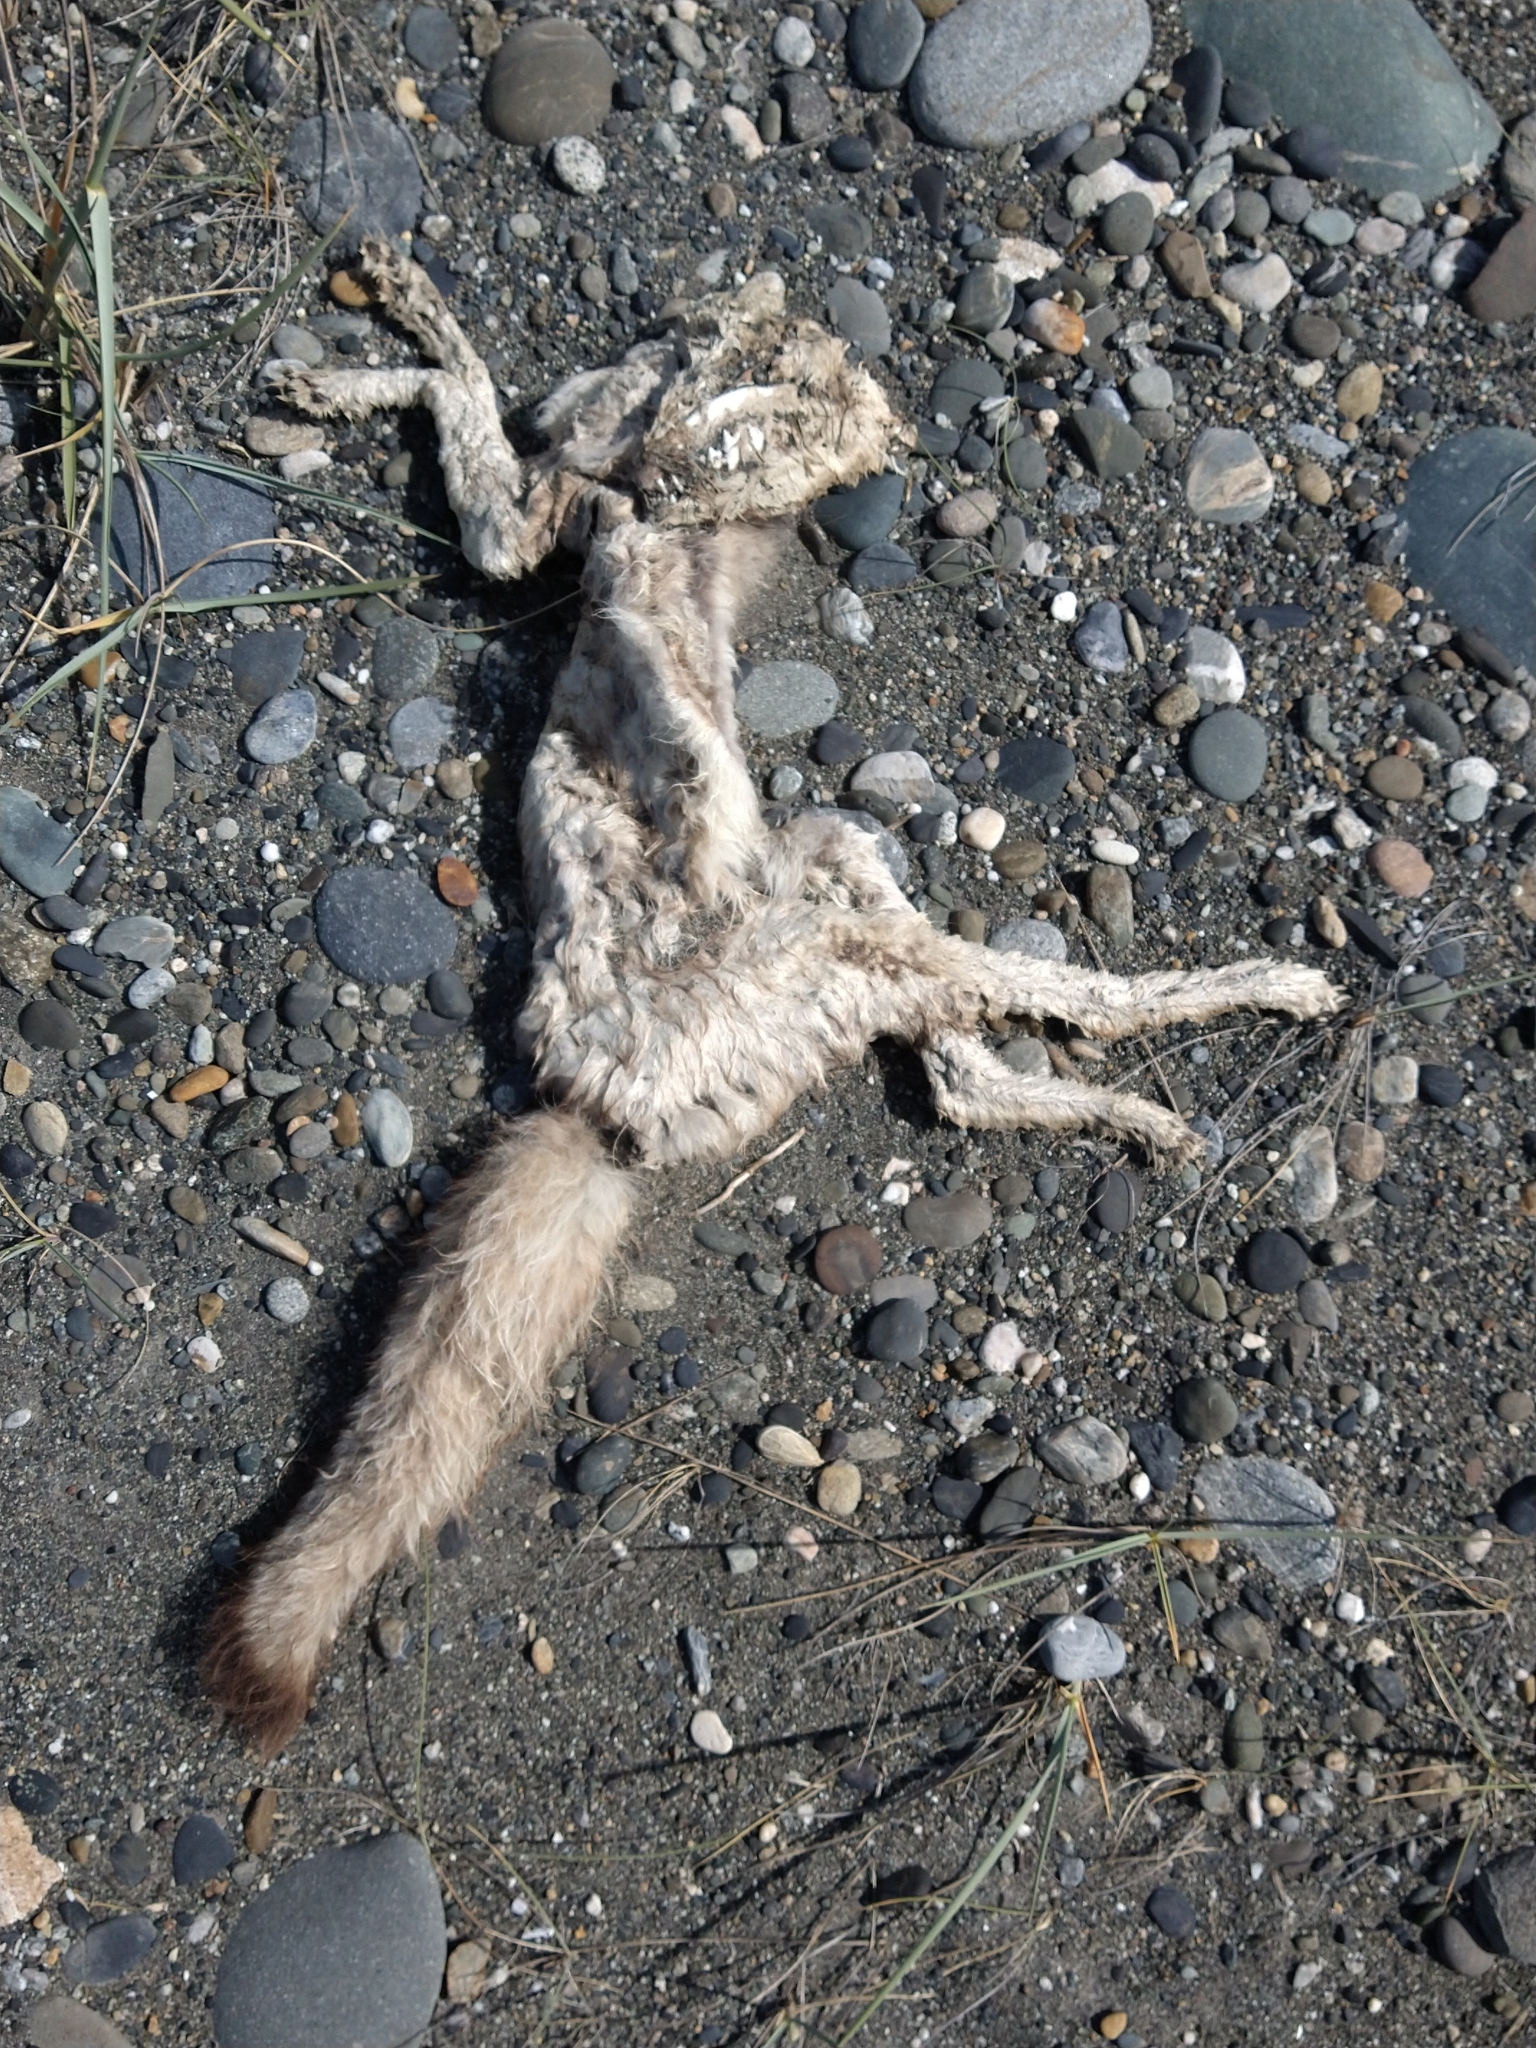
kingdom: Animalia
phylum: Chordata
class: Mammalia
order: Carnivora
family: Canidae
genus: Lycalopex
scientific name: Lycalopex gymnocercus
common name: Pampas fox
